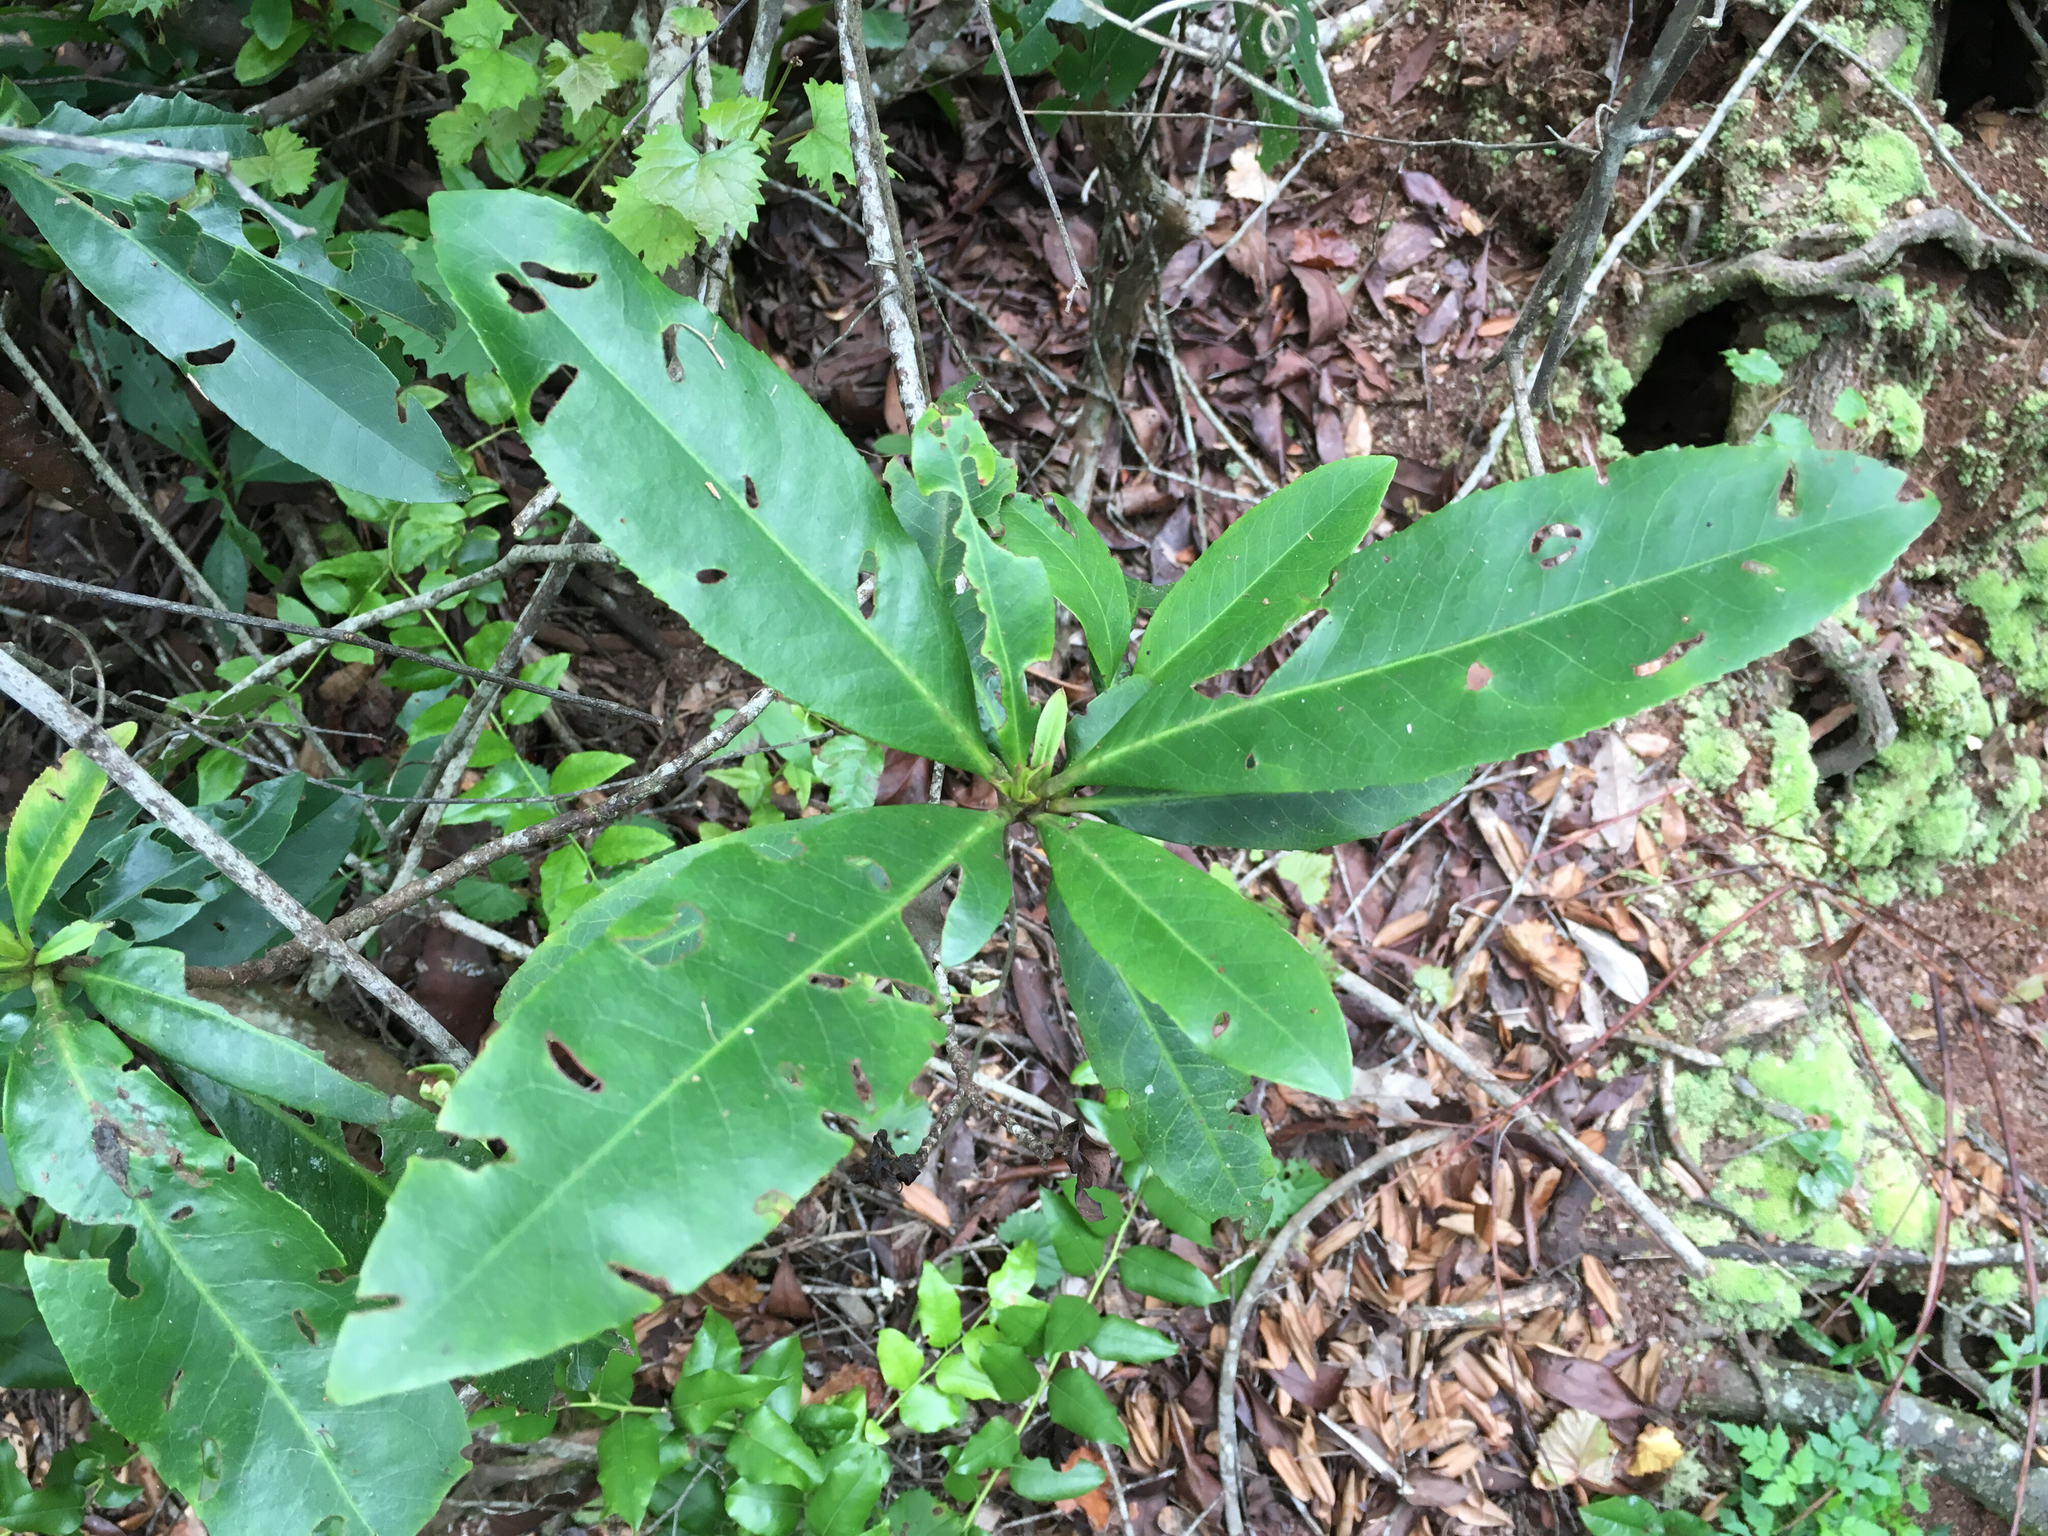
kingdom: Plantae
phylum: Tracheophyta
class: Magnoliopsida
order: Ericales
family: Theaceae
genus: Gordonia
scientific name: Gordonia lasianthus
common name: Loblolly bay
